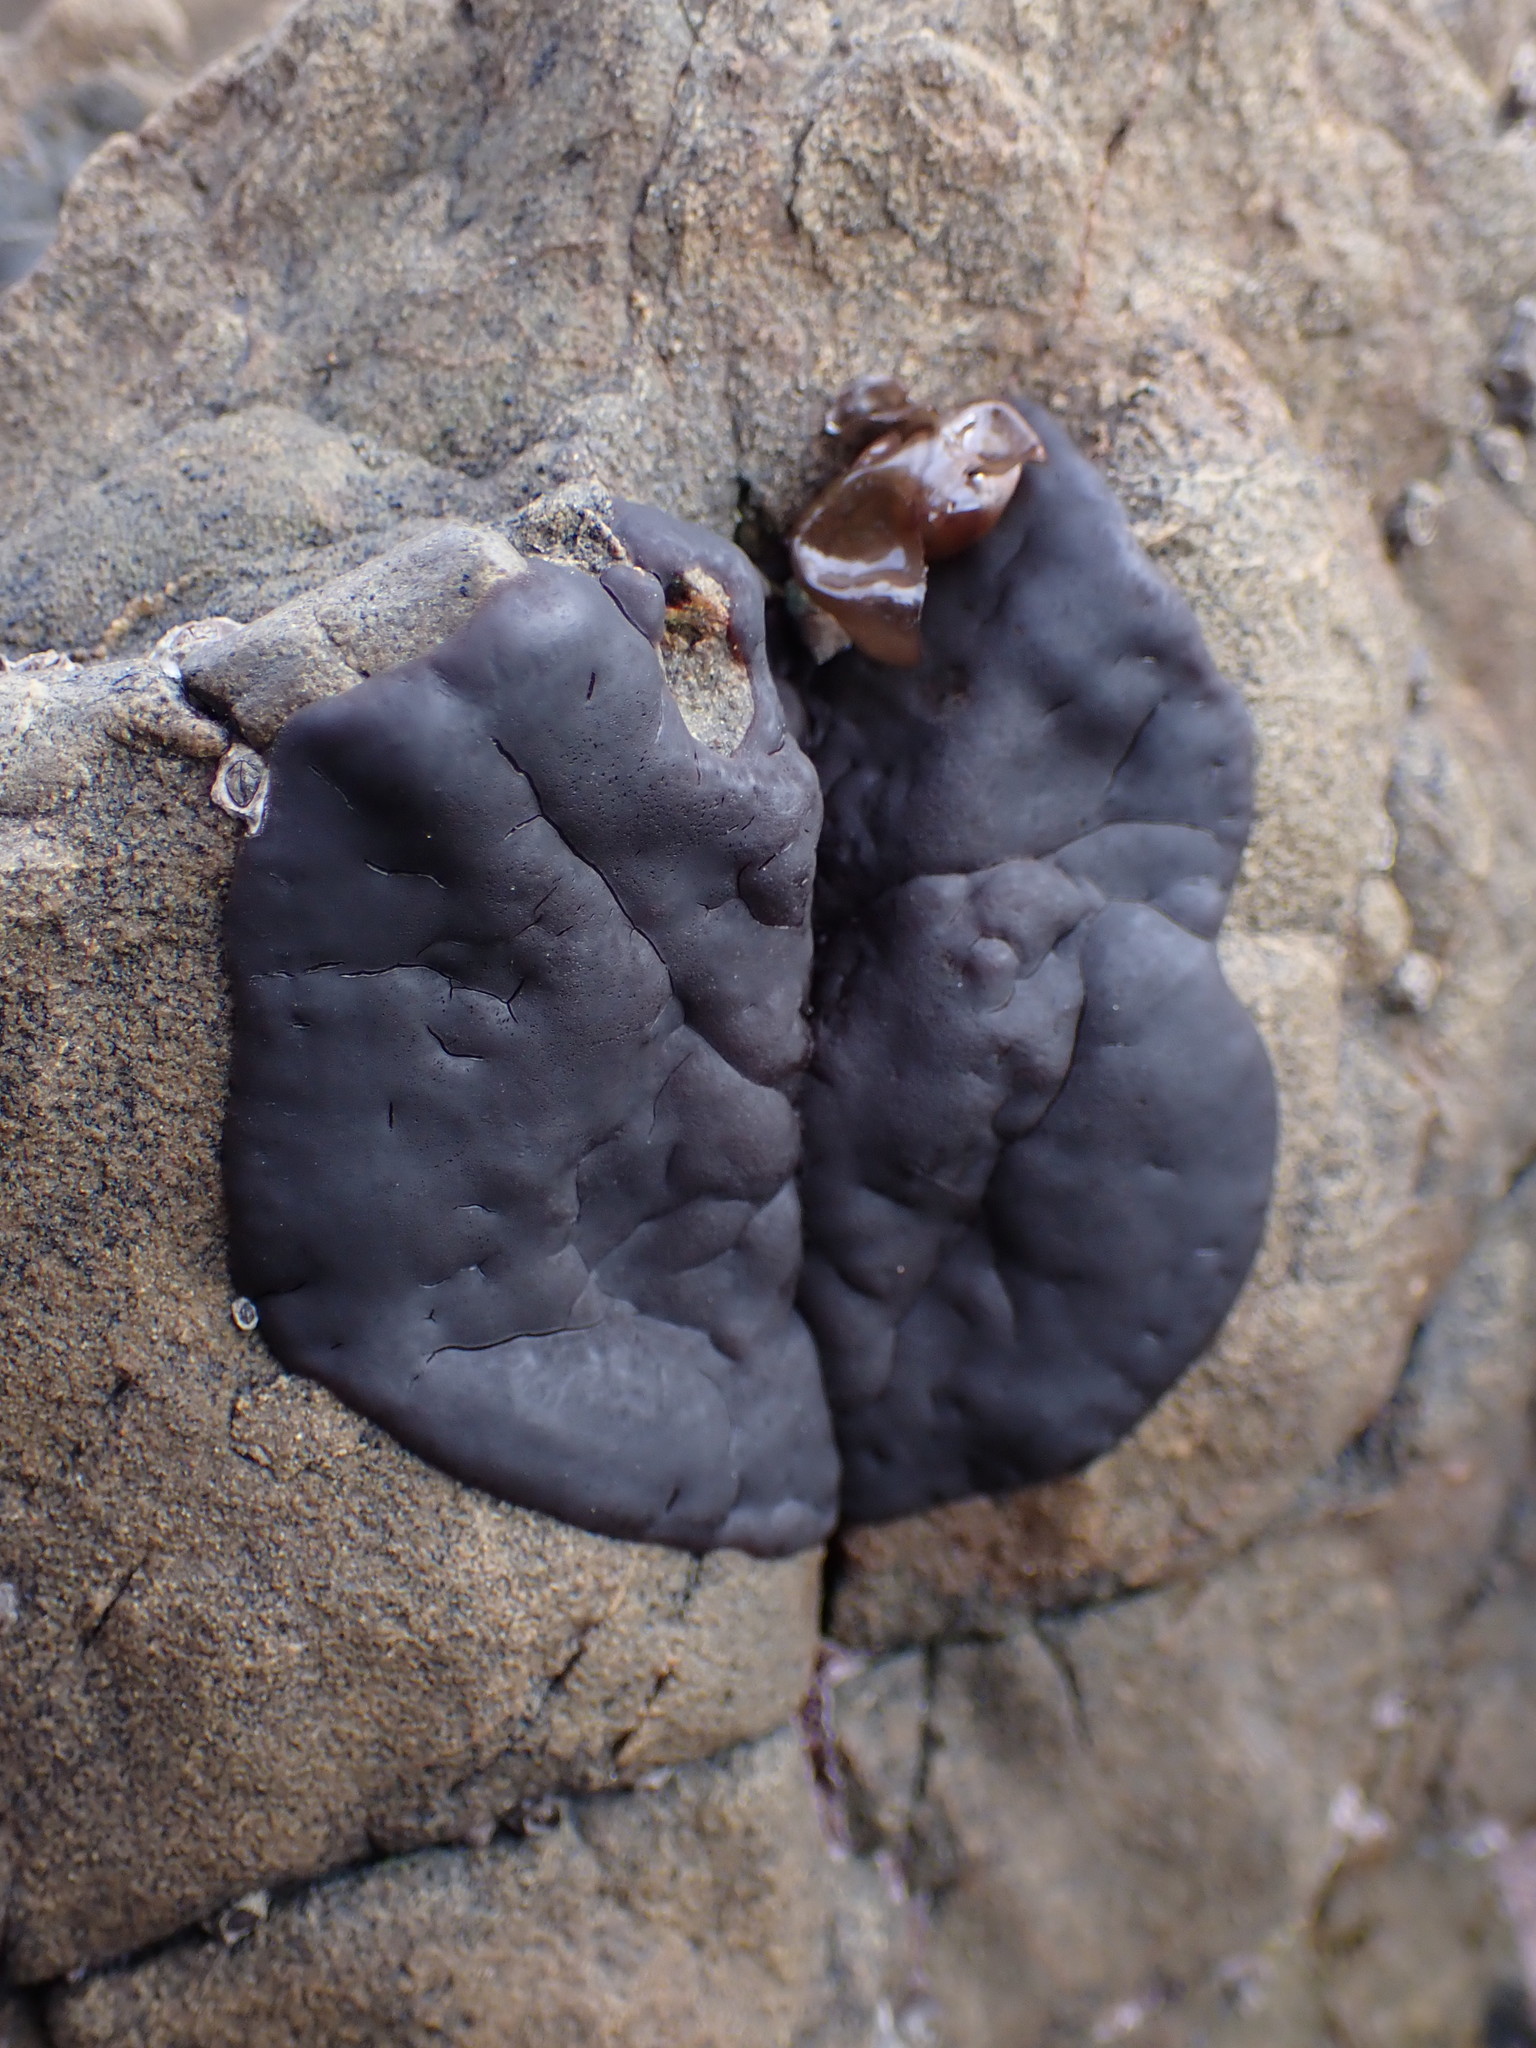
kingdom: Plantae
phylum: Rhodophyta
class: Florideophyceae
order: Hildenbrandiales
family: Hildenbrandiaceae
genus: Apophlaea
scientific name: Apophlaea
